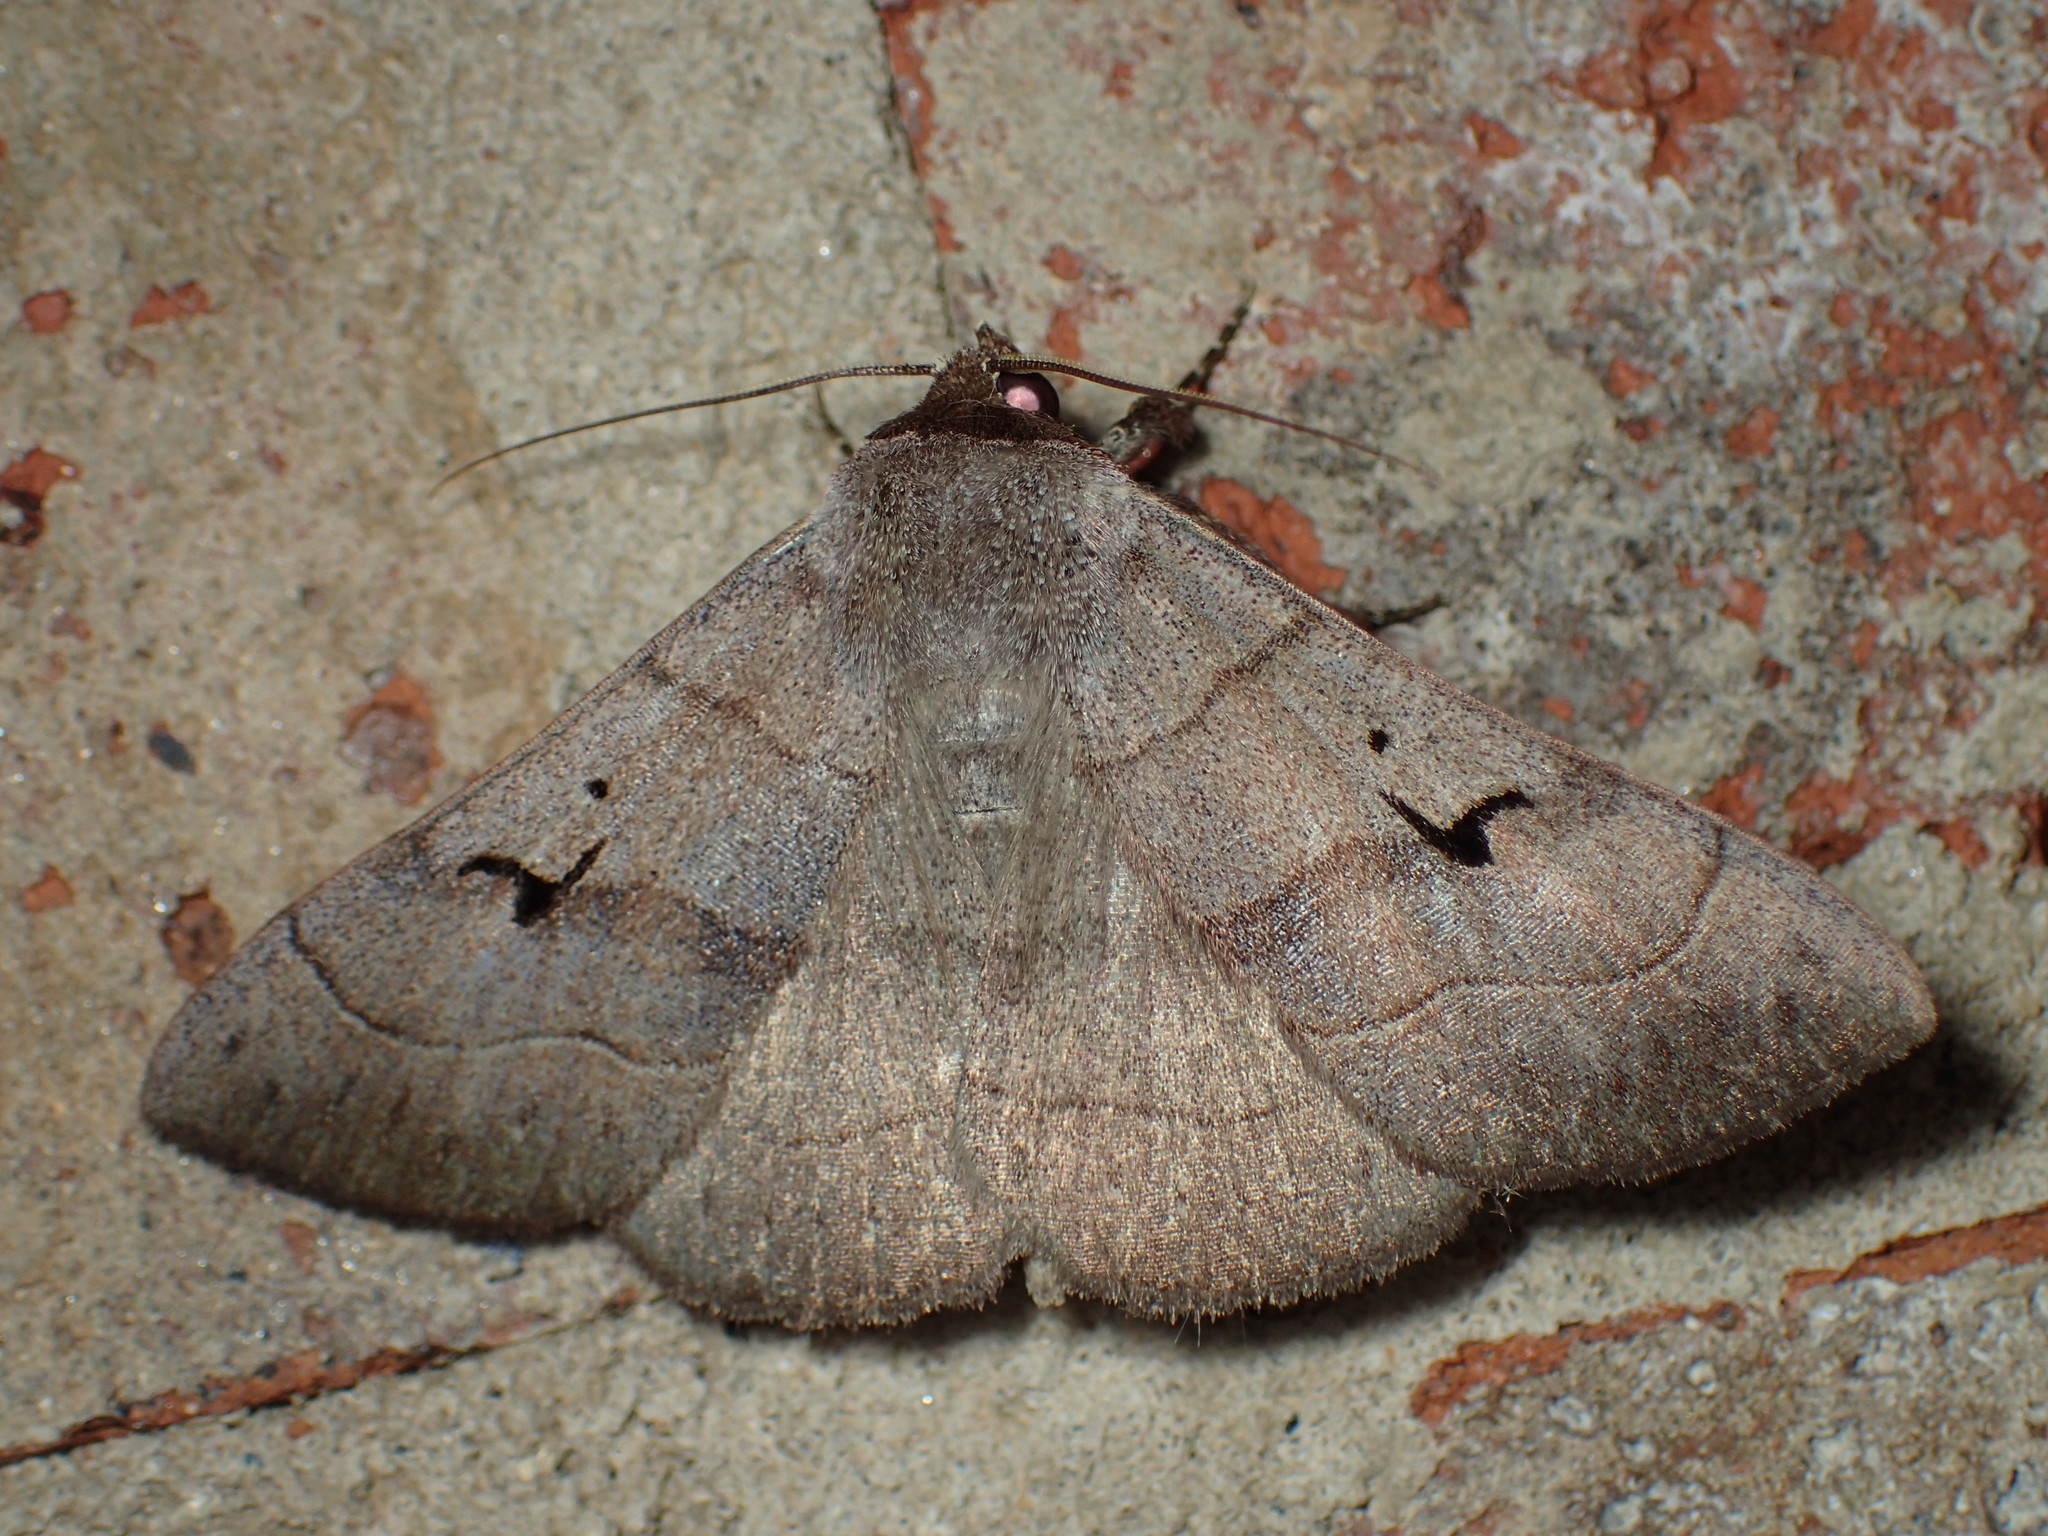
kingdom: Animalia
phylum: Arthropoda
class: Insecta
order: Lepidoptera
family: Erebidae
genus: Panopoda
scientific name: Panopoda carneicosta
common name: Brown panopoda moth
